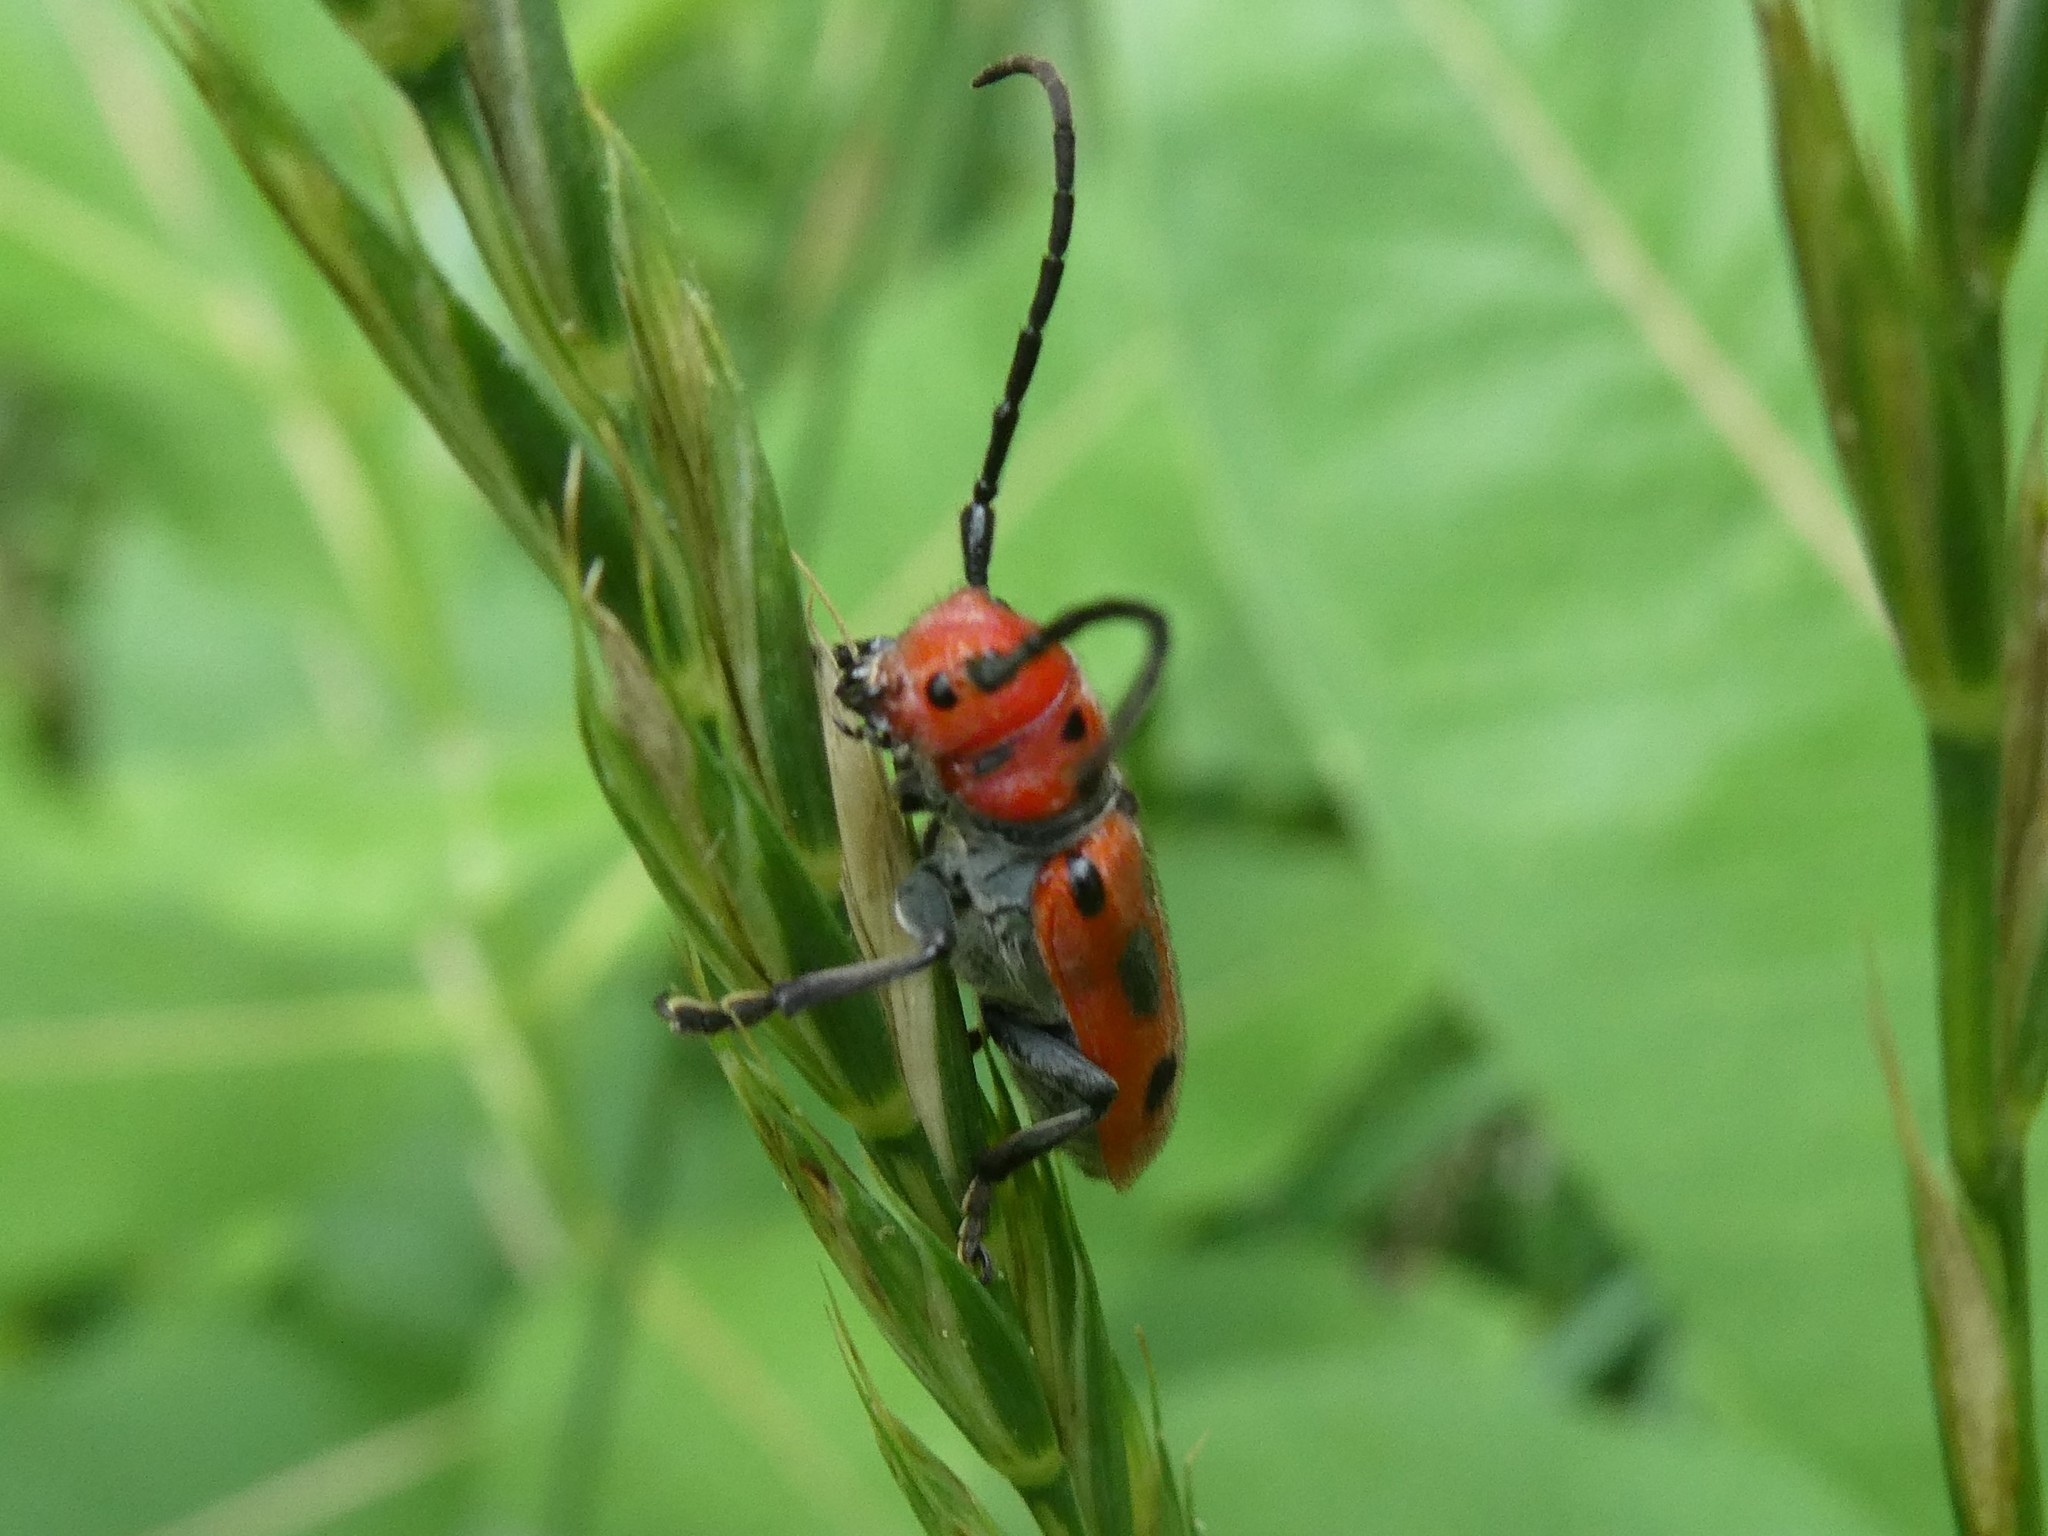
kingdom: Animalia
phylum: Arthropoda
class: Insecta
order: Coleoptera
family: Cerambycidae
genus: Tetraopes
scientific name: Tetraopes tetrophthalmus
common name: Red milkweed beetle
